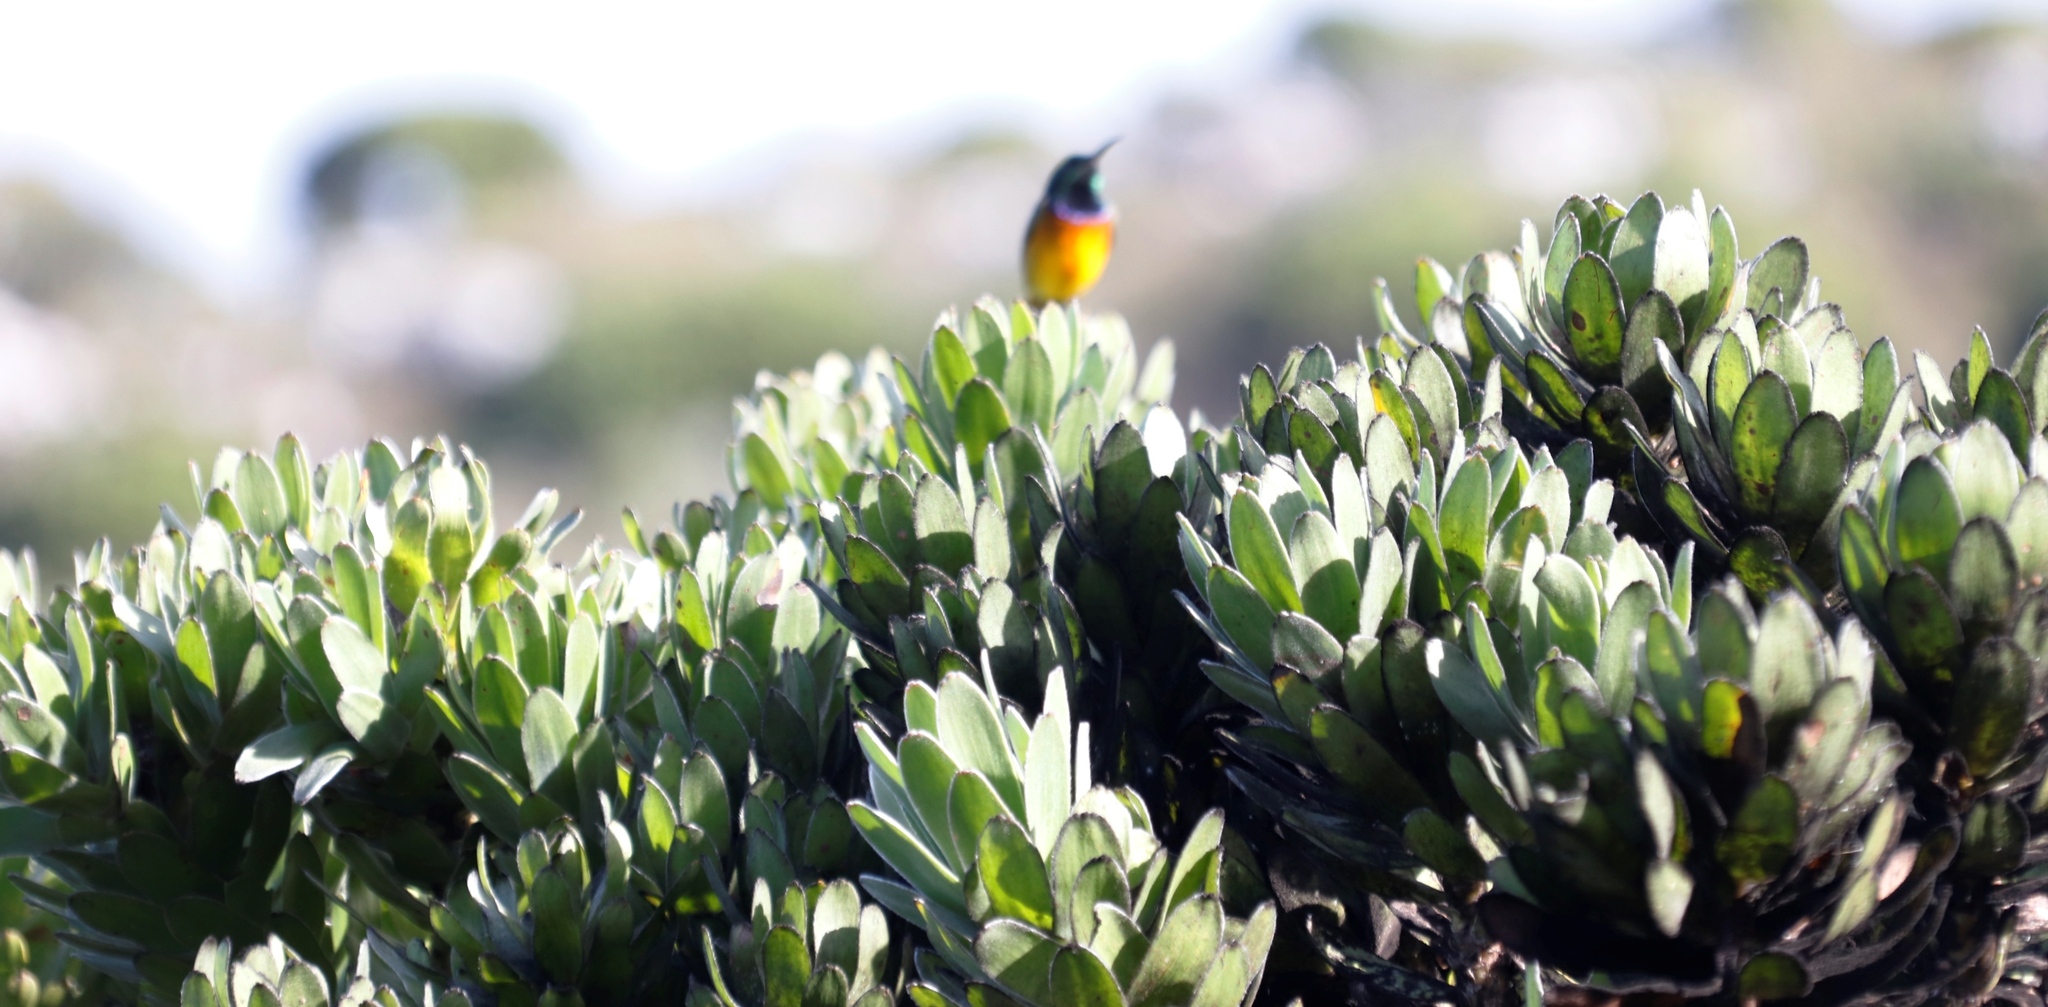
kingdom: Plantae
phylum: Tracheophyta
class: Magnoliopsida
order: Proteales
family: Proteaceae
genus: Mimetes
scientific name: Mimetes fimbriifolius
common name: Fringed bottlebrush
